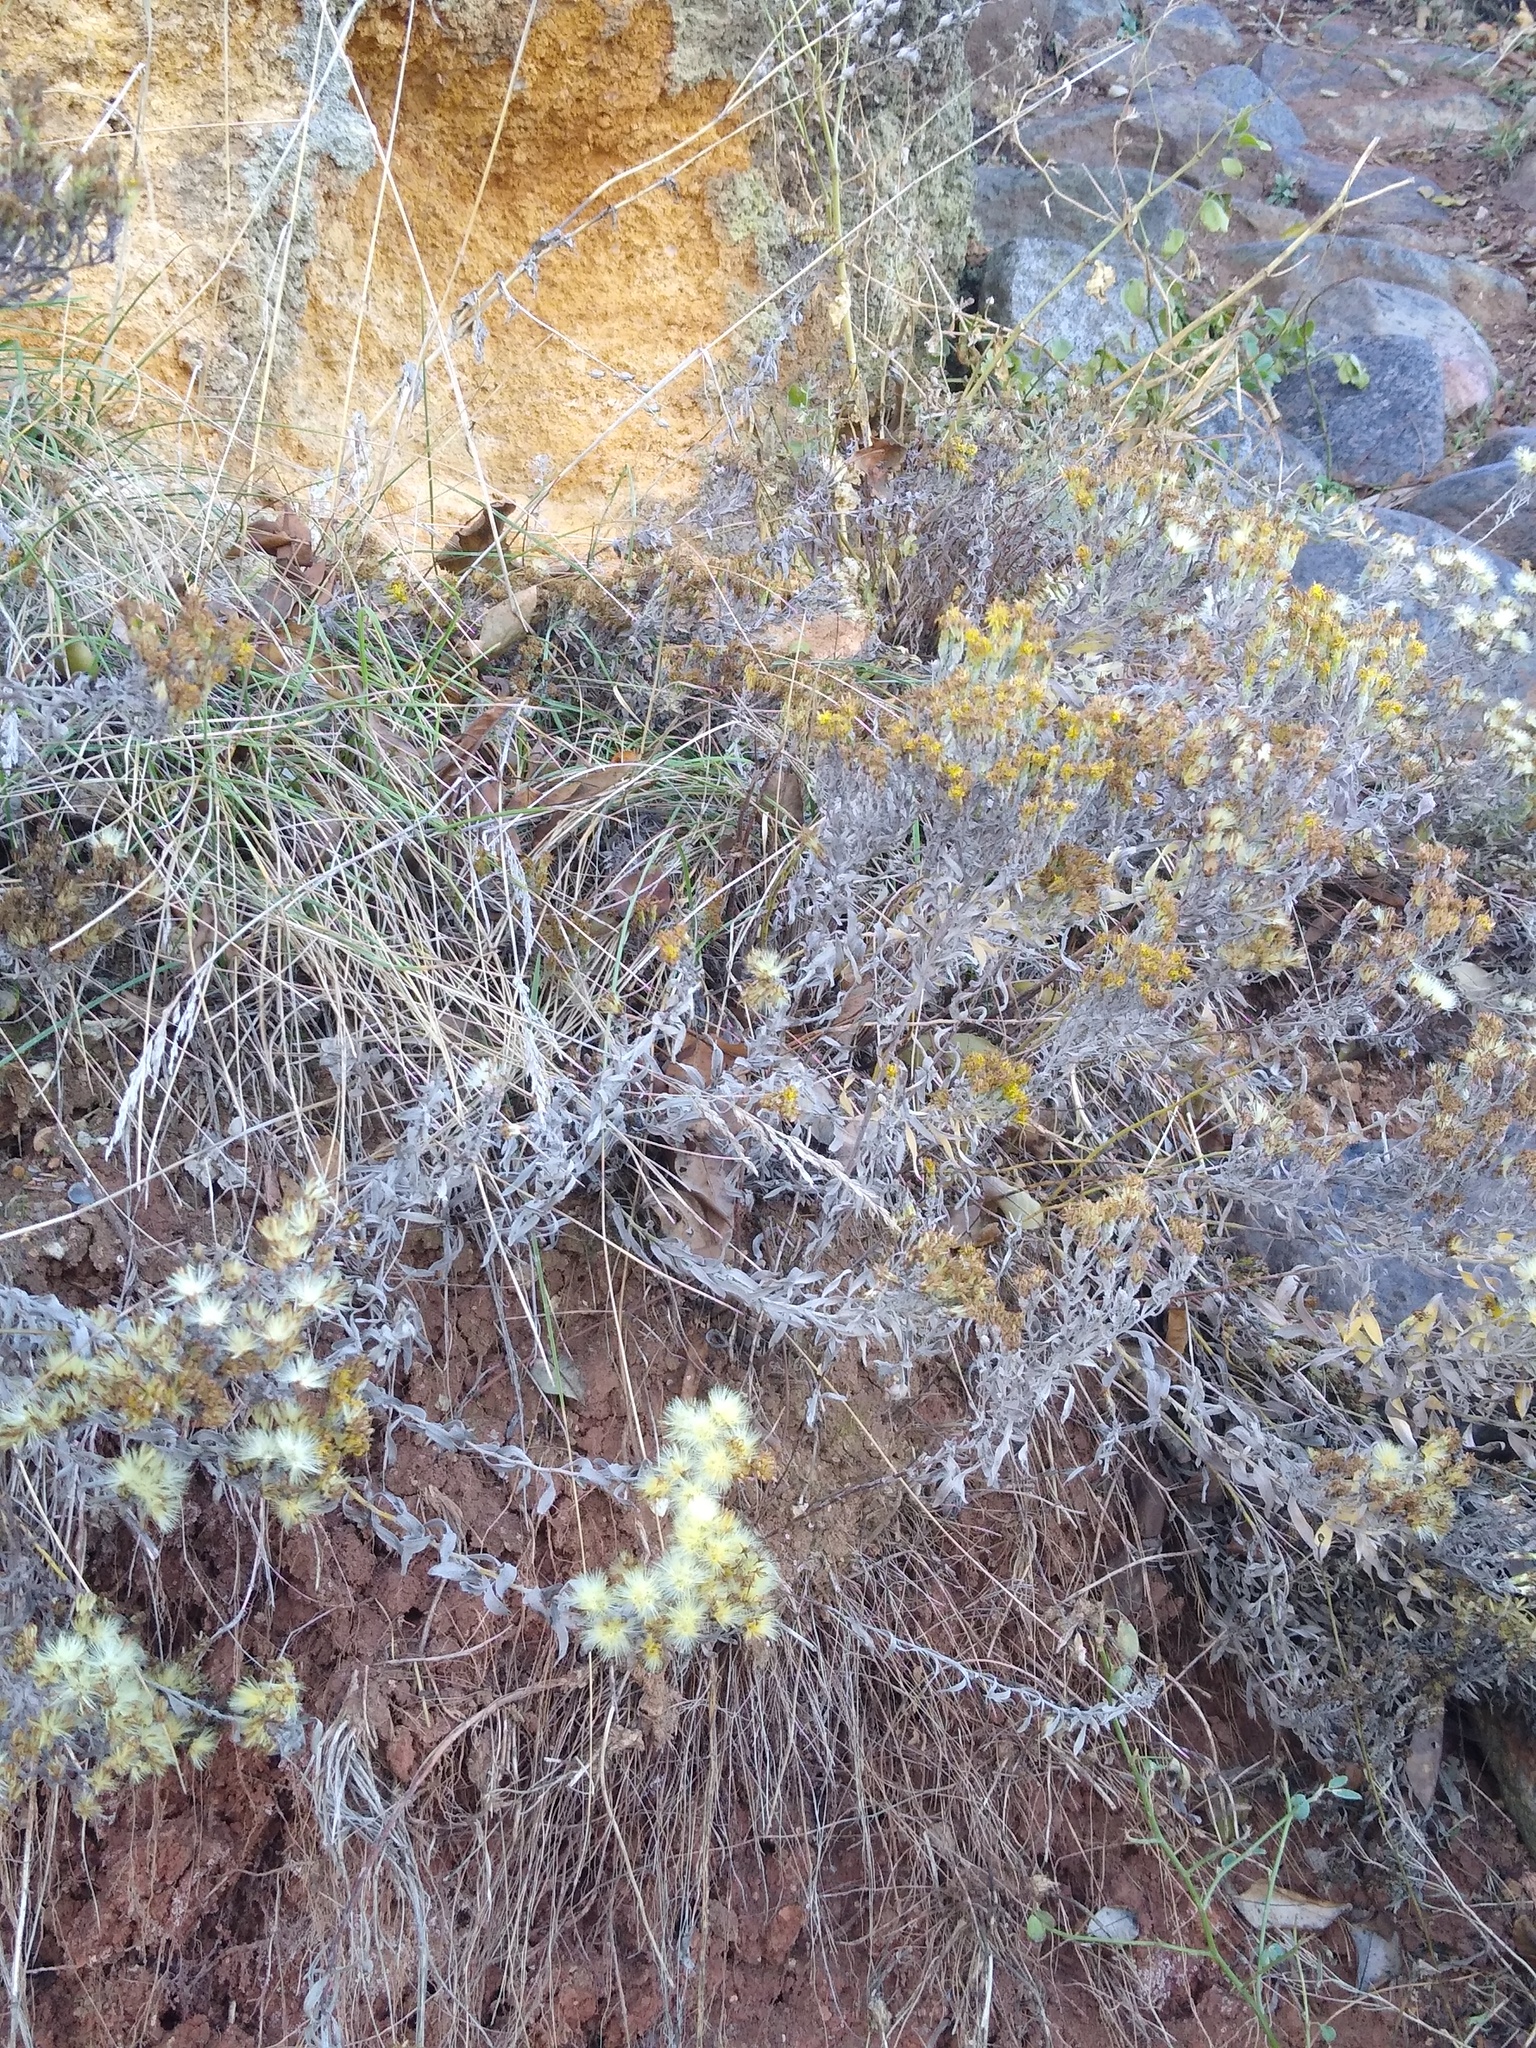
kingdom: Plantae
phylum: Tracheophyta
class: Magnoliopsida
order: Asterales
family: Asteraceae
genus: Galatella
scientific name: Galatella villosa
